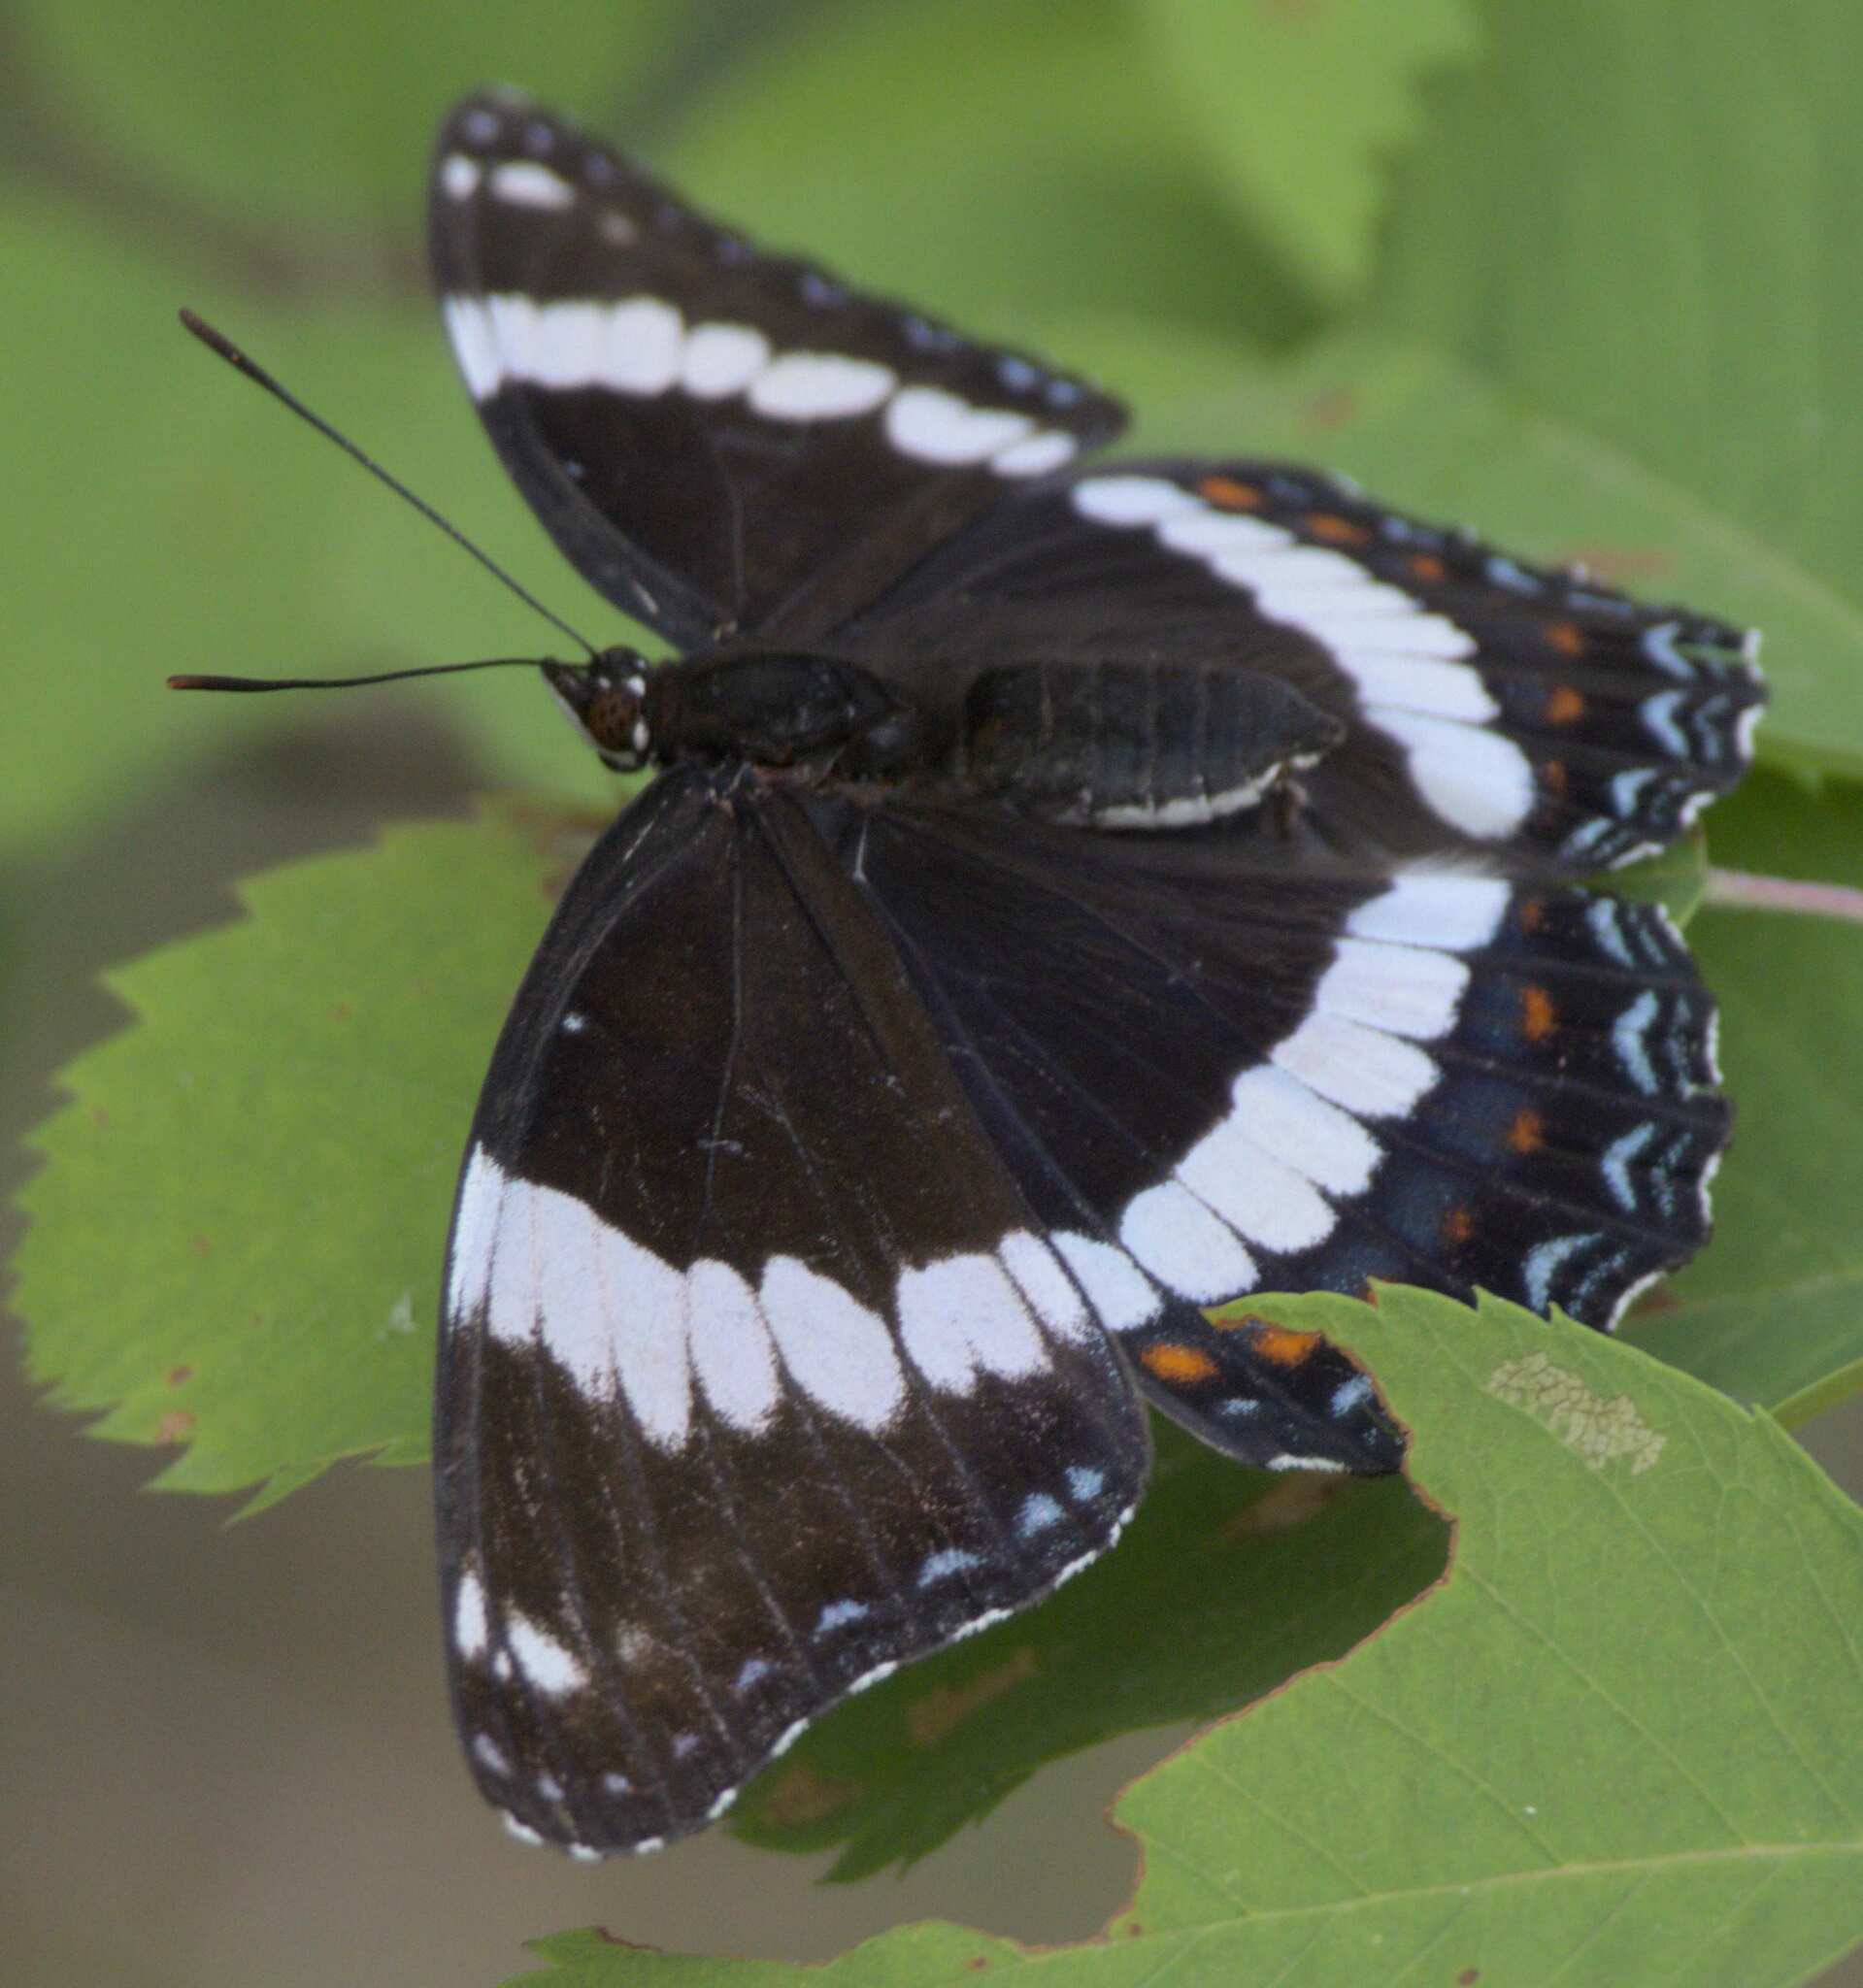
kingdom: Animalia
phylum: Arthropoda
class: Insecta
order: Lepidoptera
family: Nymphalidae
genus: Limenitis
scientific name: Limenitis arthemis
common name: Red-spotted admiral
